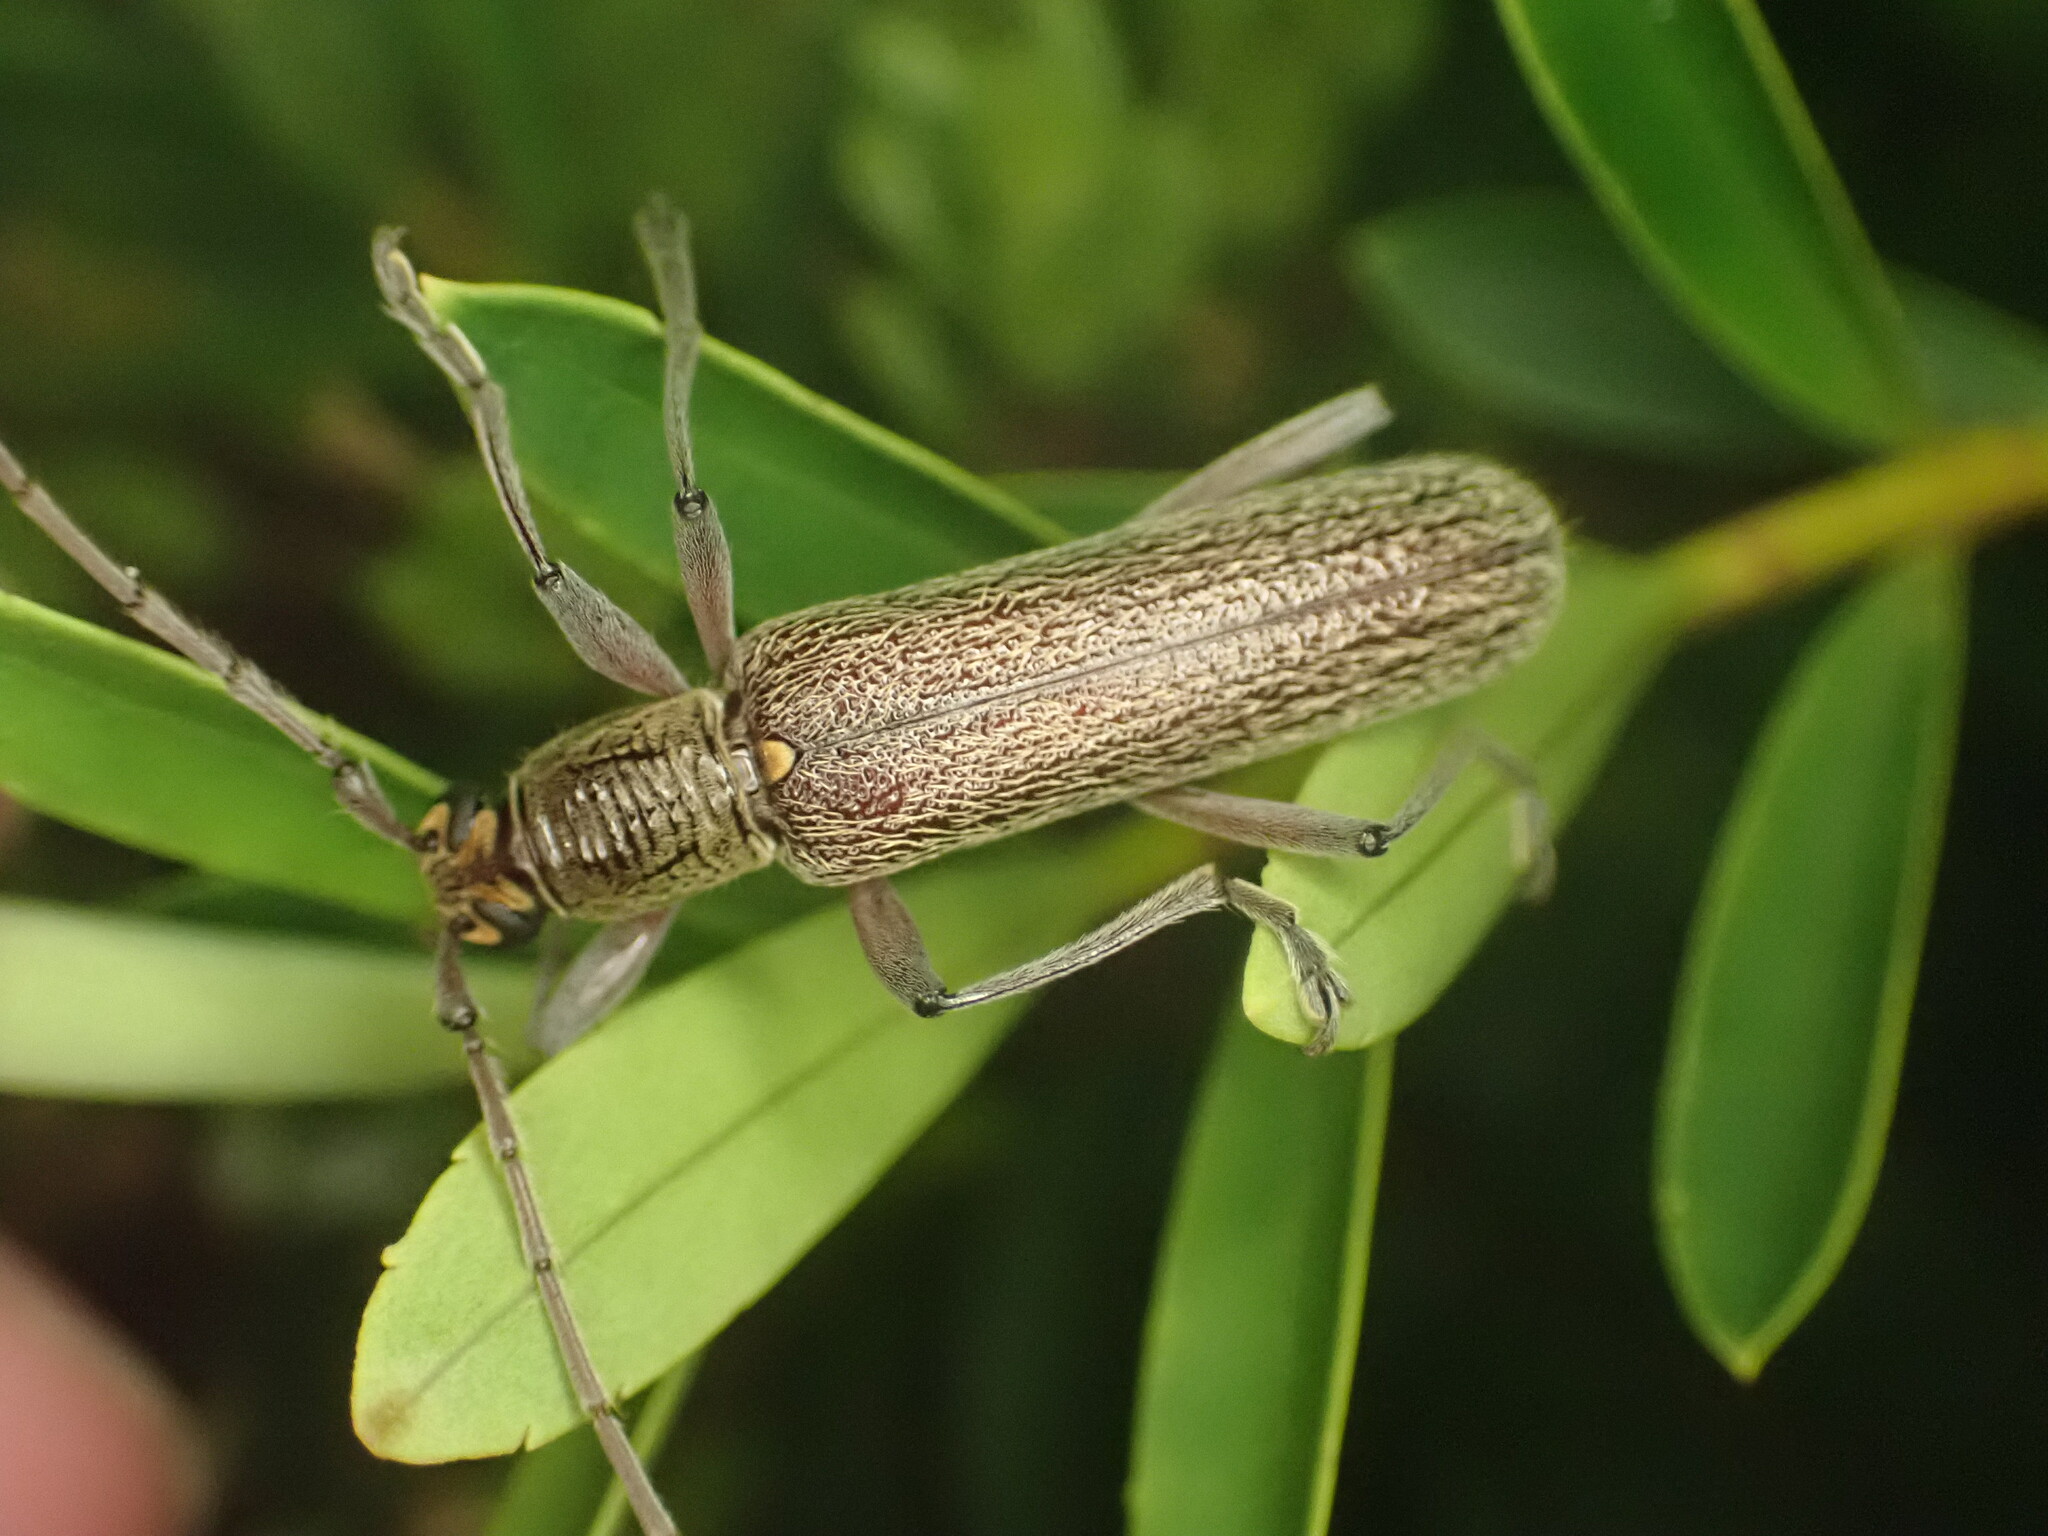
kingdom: Animalia
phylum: Arthropoda
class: Insecta
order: Coleoptera
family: Cerambycidae
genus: Oemona
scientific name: Oemona hirta
